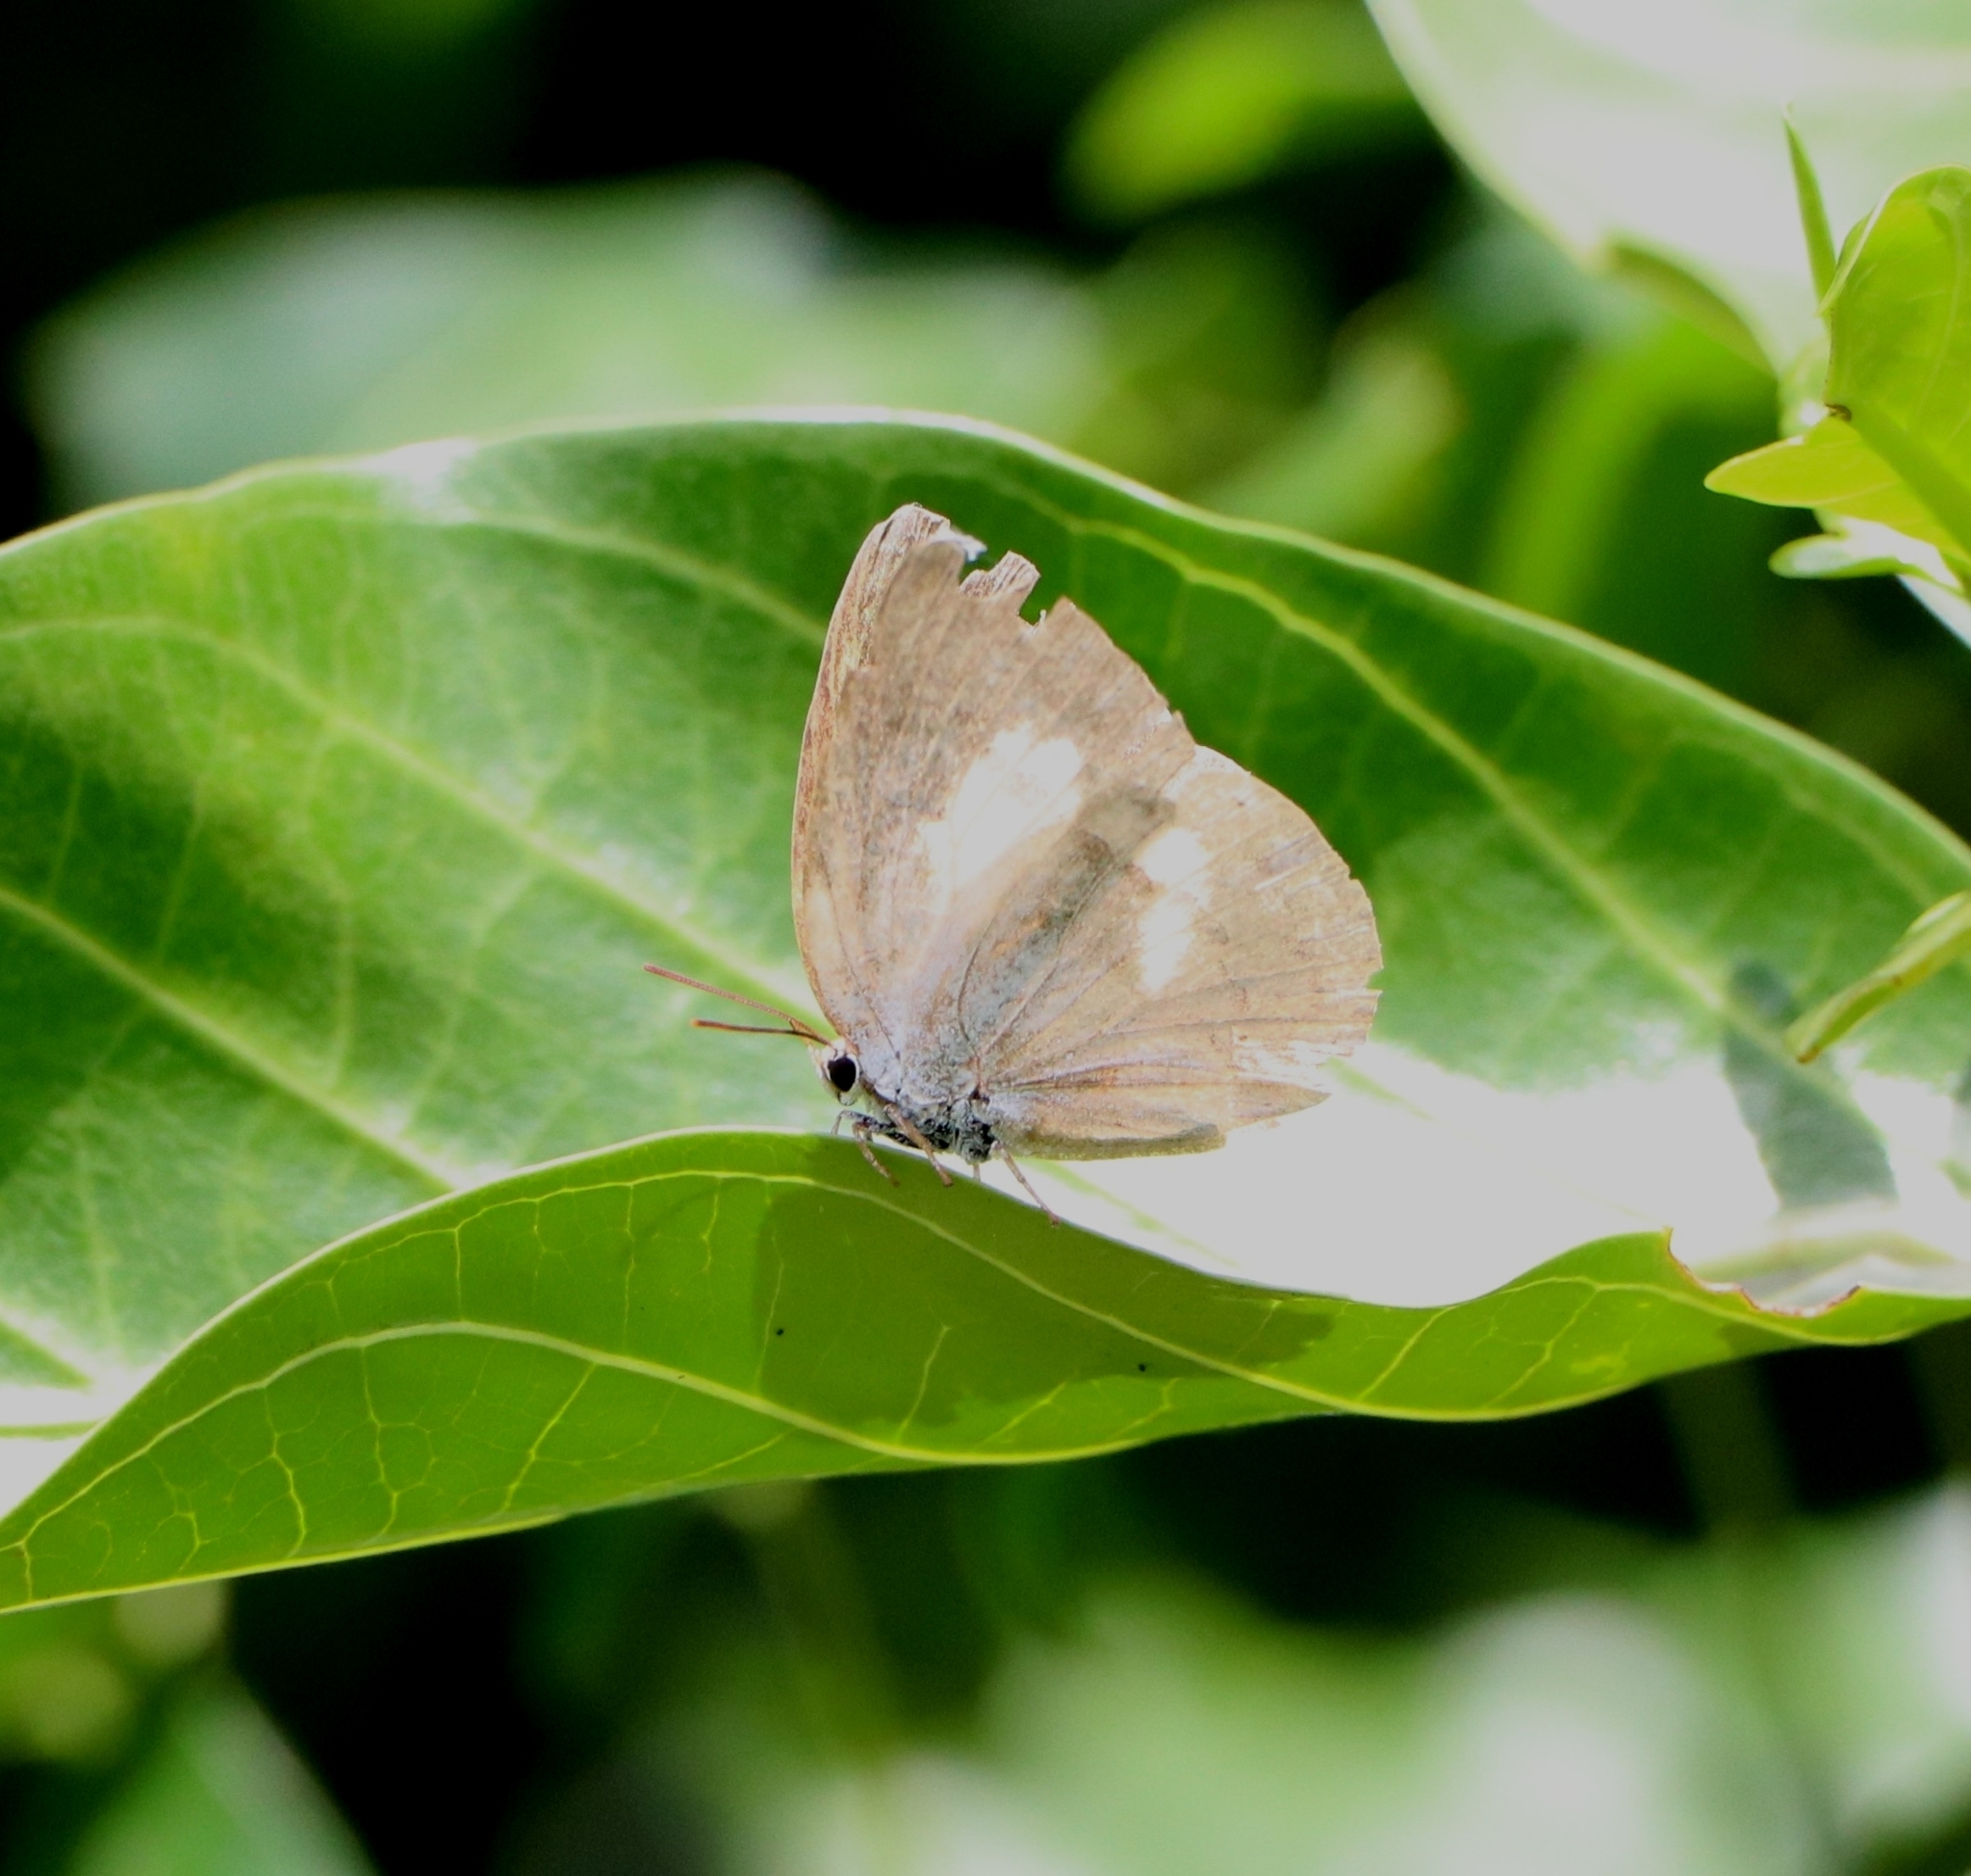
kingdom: Animalia
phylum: Arthropoda
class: Insecta
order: Lepidoptera
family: Lycaenidae
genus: Curetis
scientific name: Curetis thetis
